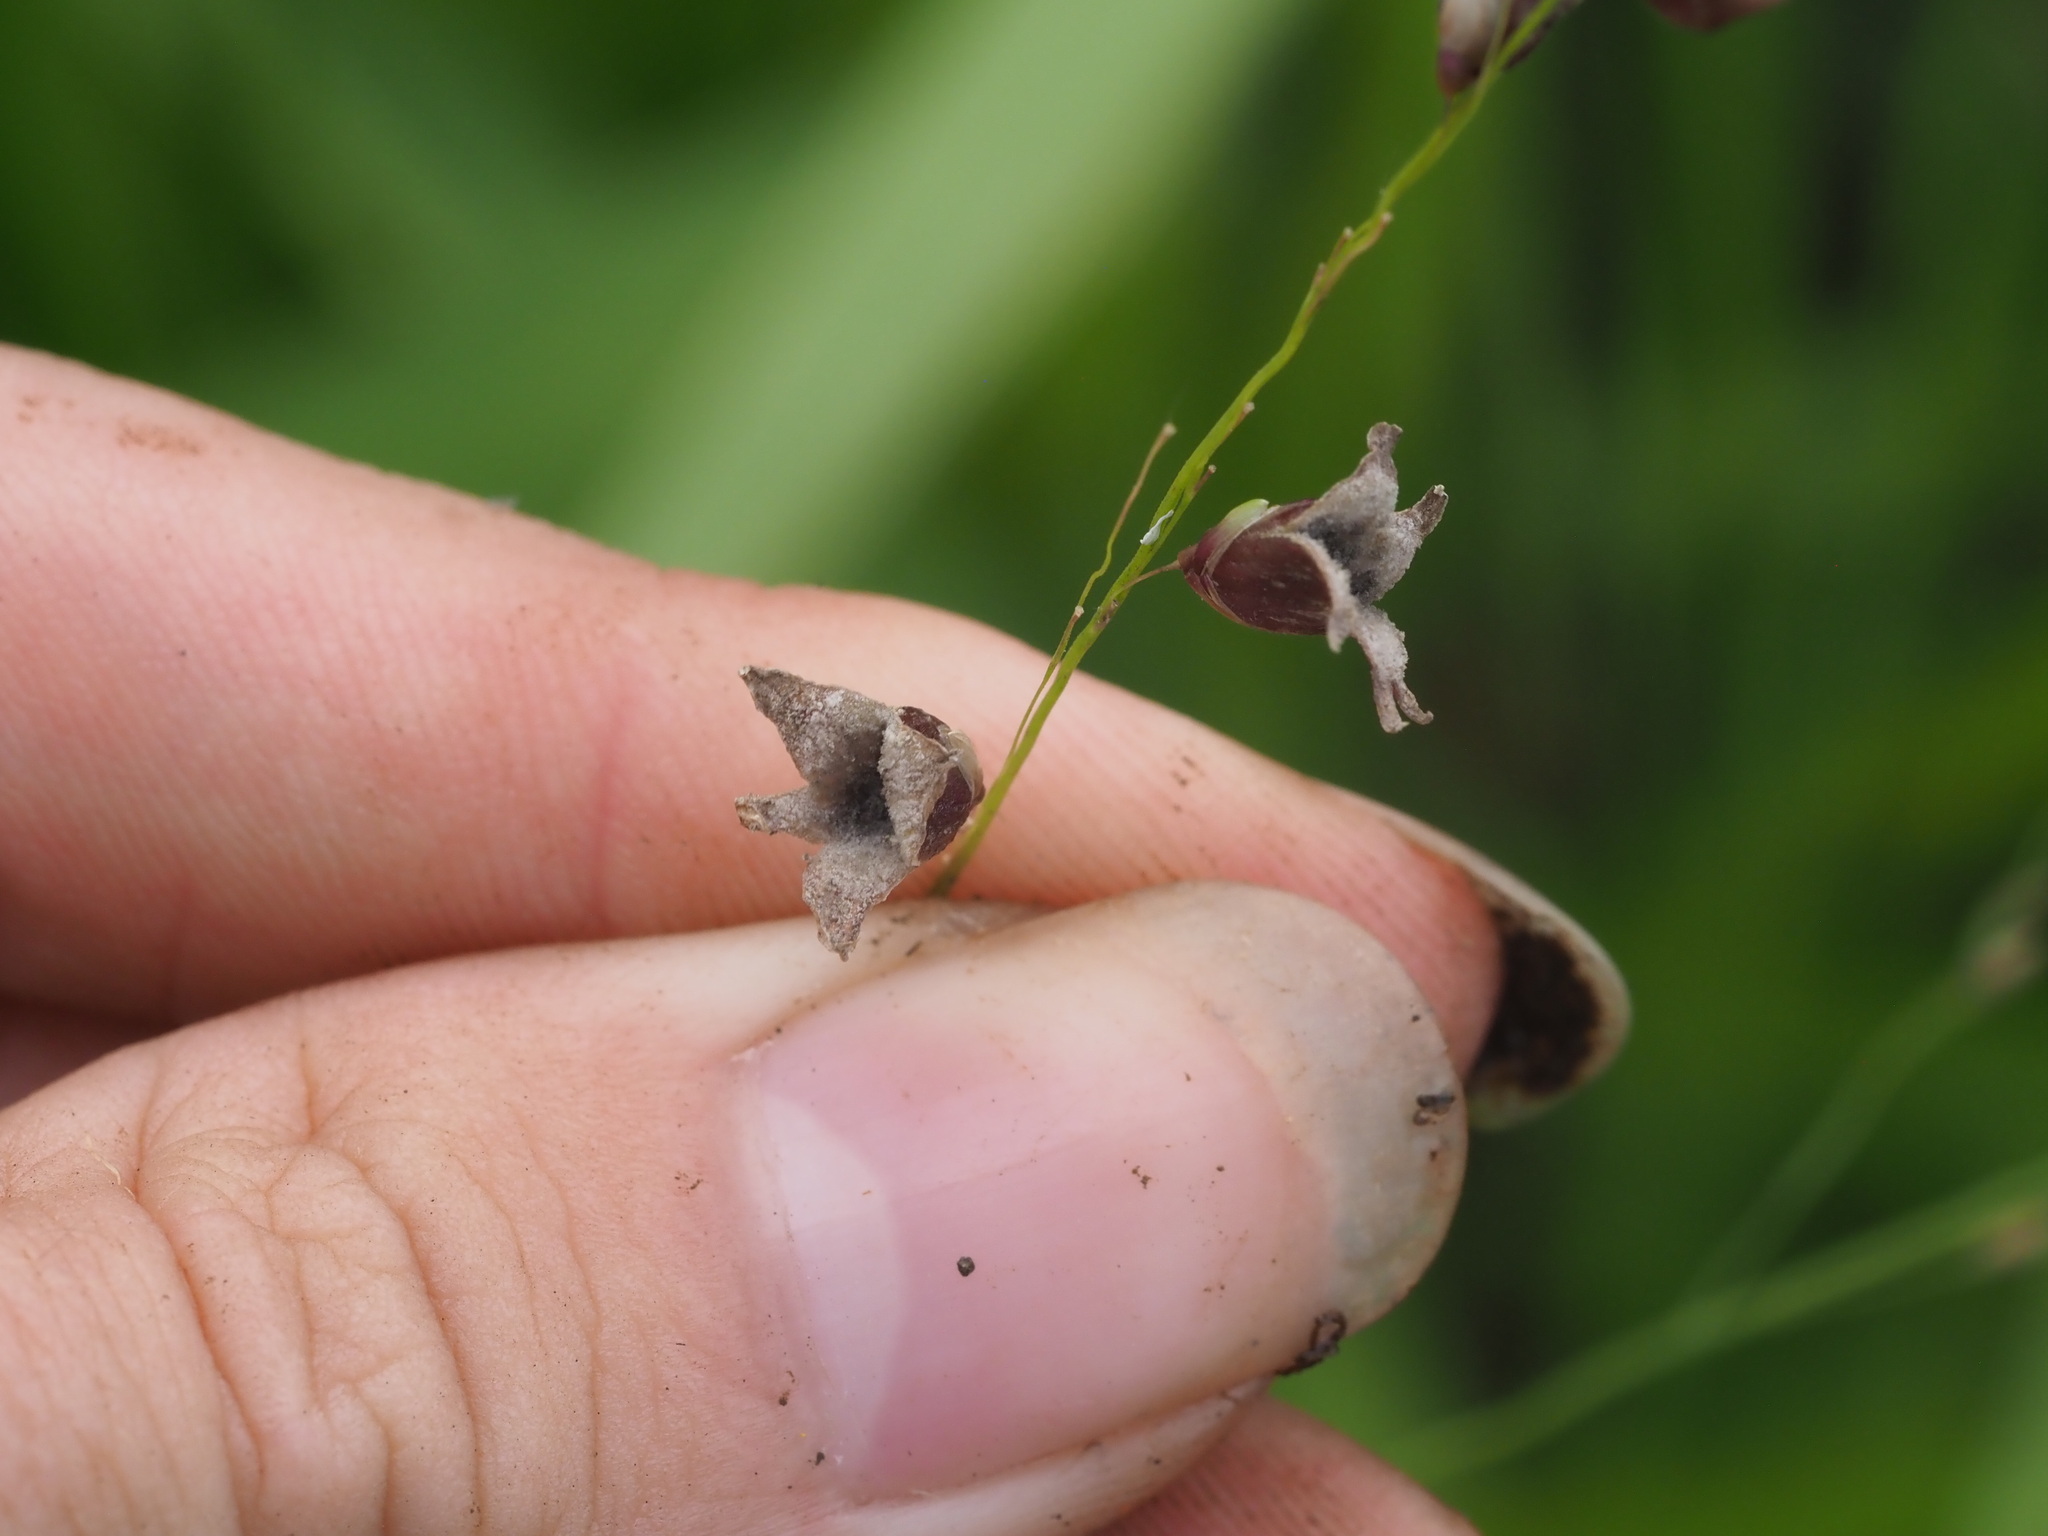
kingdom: Fungi
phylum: Basidiomycota
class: Exobasidiomycetes
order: Tilletiales
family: Tilletiaceae
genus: Conidiosporomyces
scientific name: Conidiosporomyces ayresii
